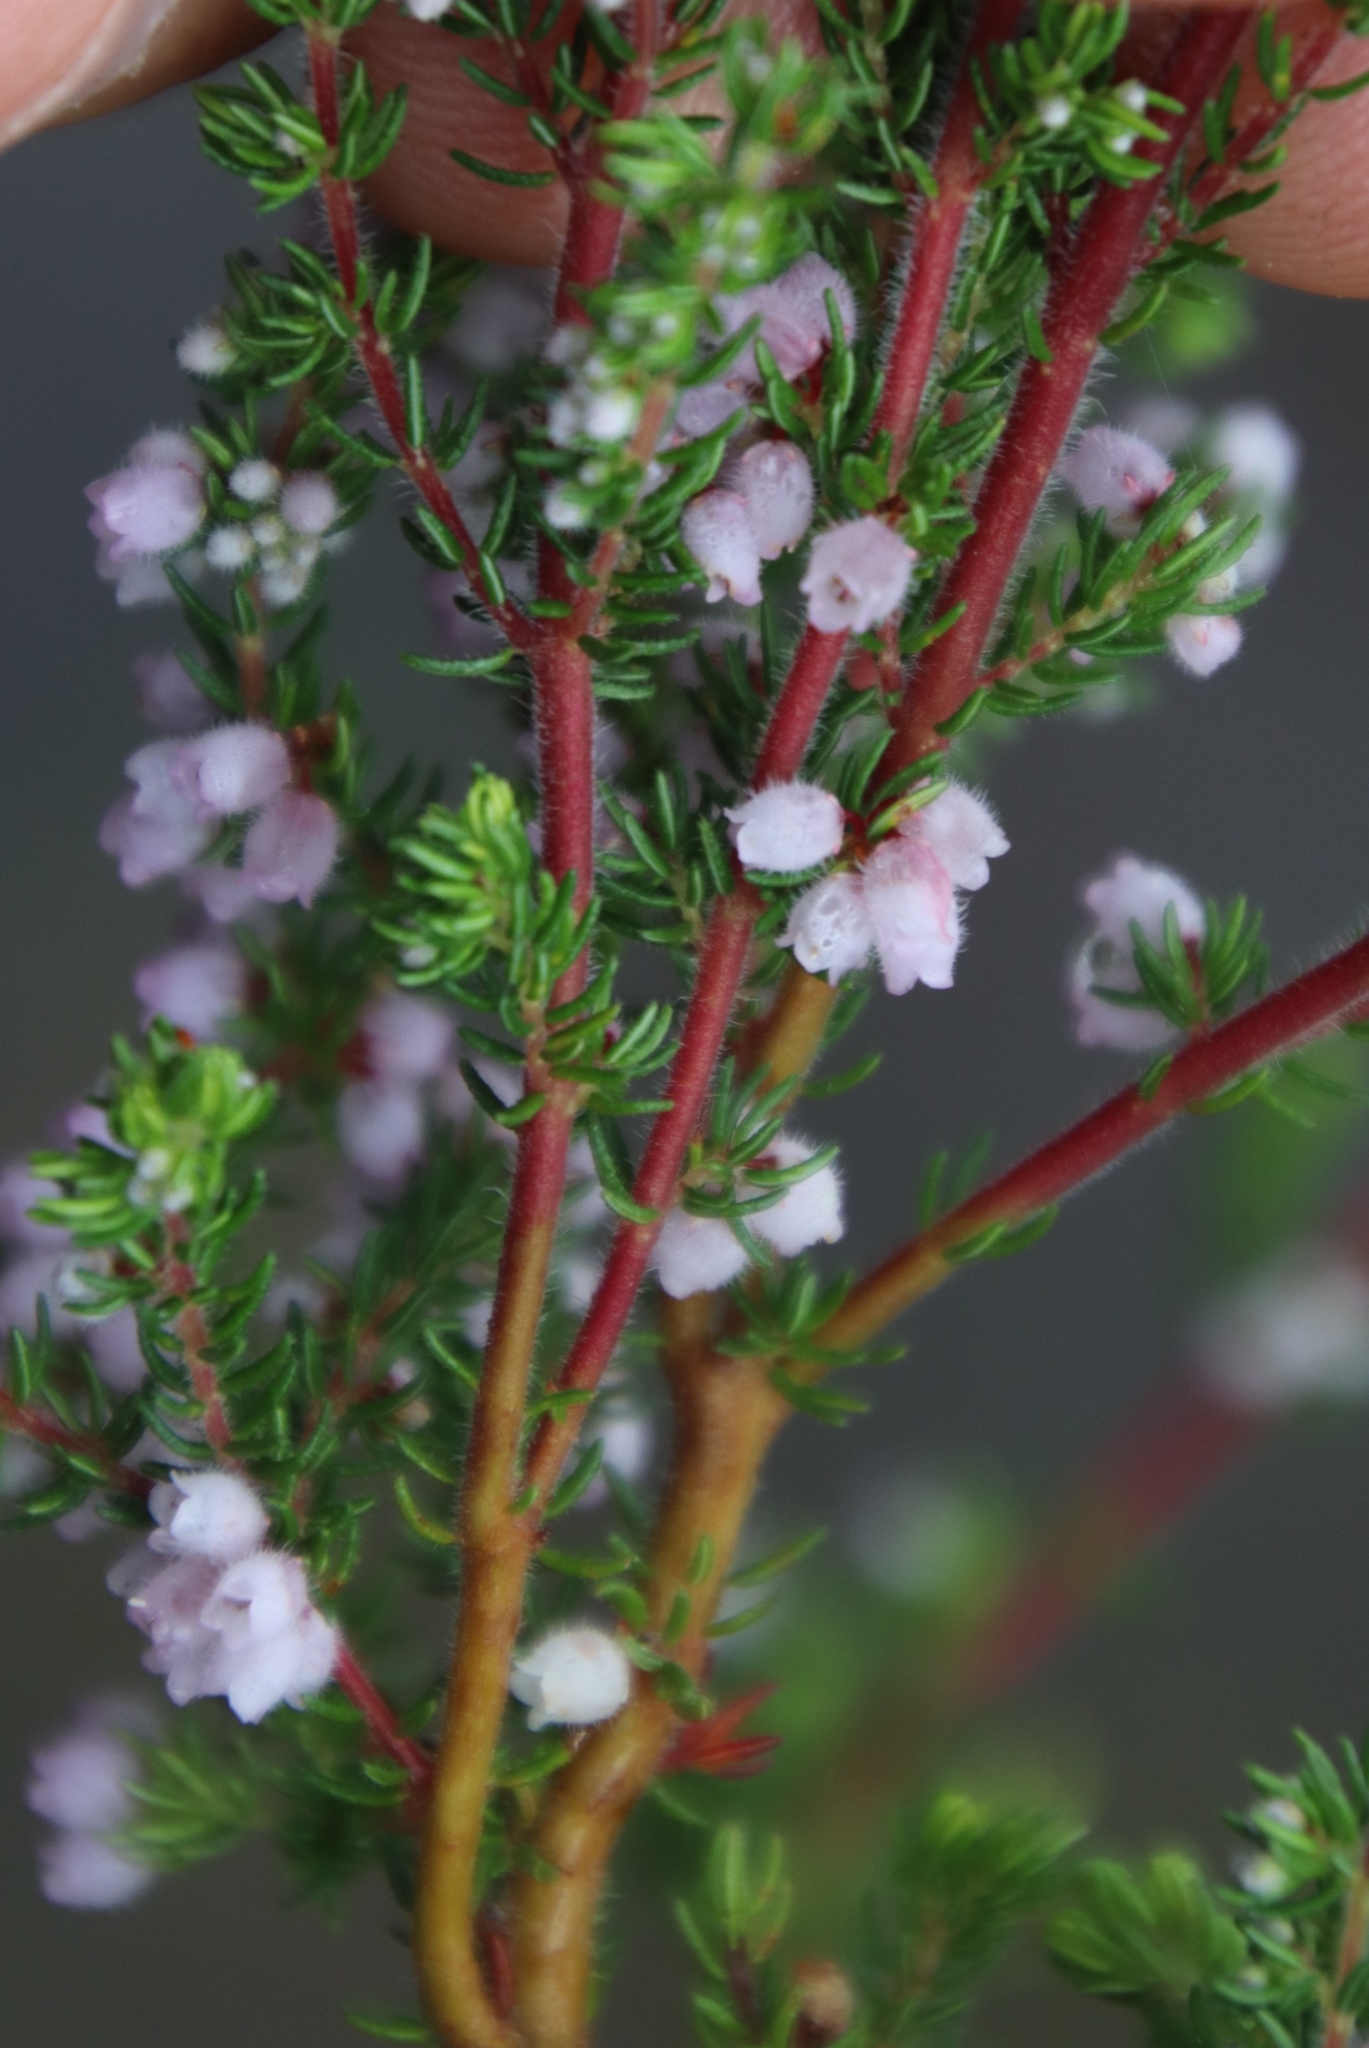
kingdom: Plantae
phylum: Tracheophyta
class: Magnoliopsida
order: Ericales
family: Ericaceae
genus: Erica
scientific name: Erica canescens
